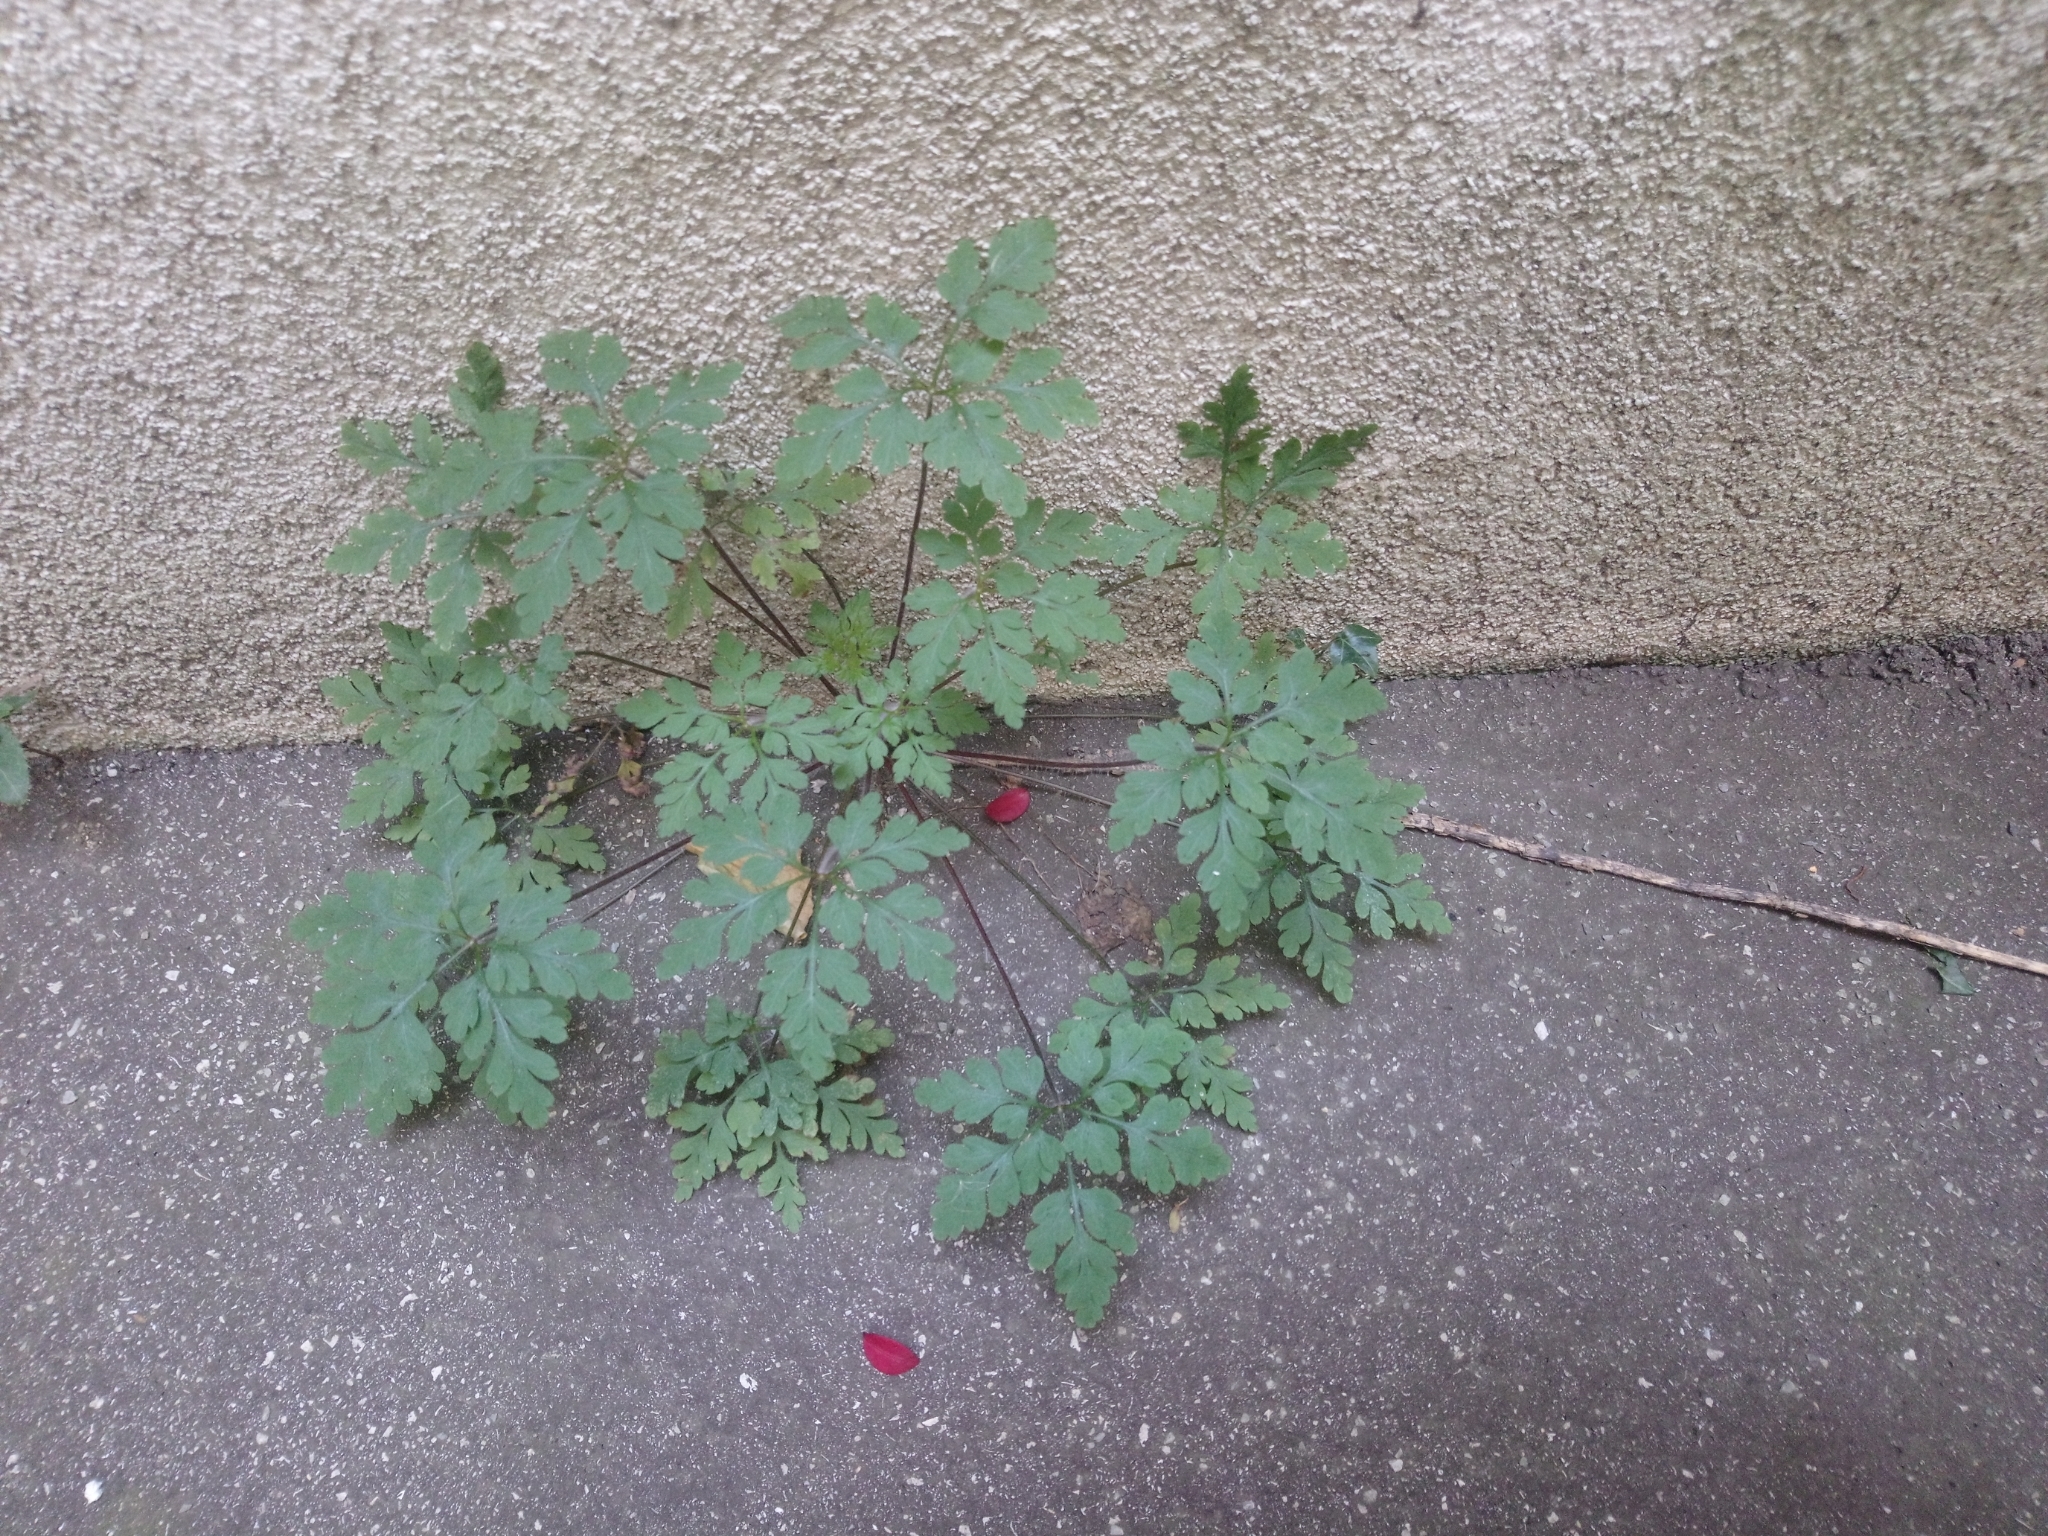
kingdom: Plantae
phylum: Tracheophyta
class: Magnoliopsida
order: Geraniales
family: Geraniaceae
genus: Geranium
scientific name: Geranium robertianum
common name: Herb-robert
